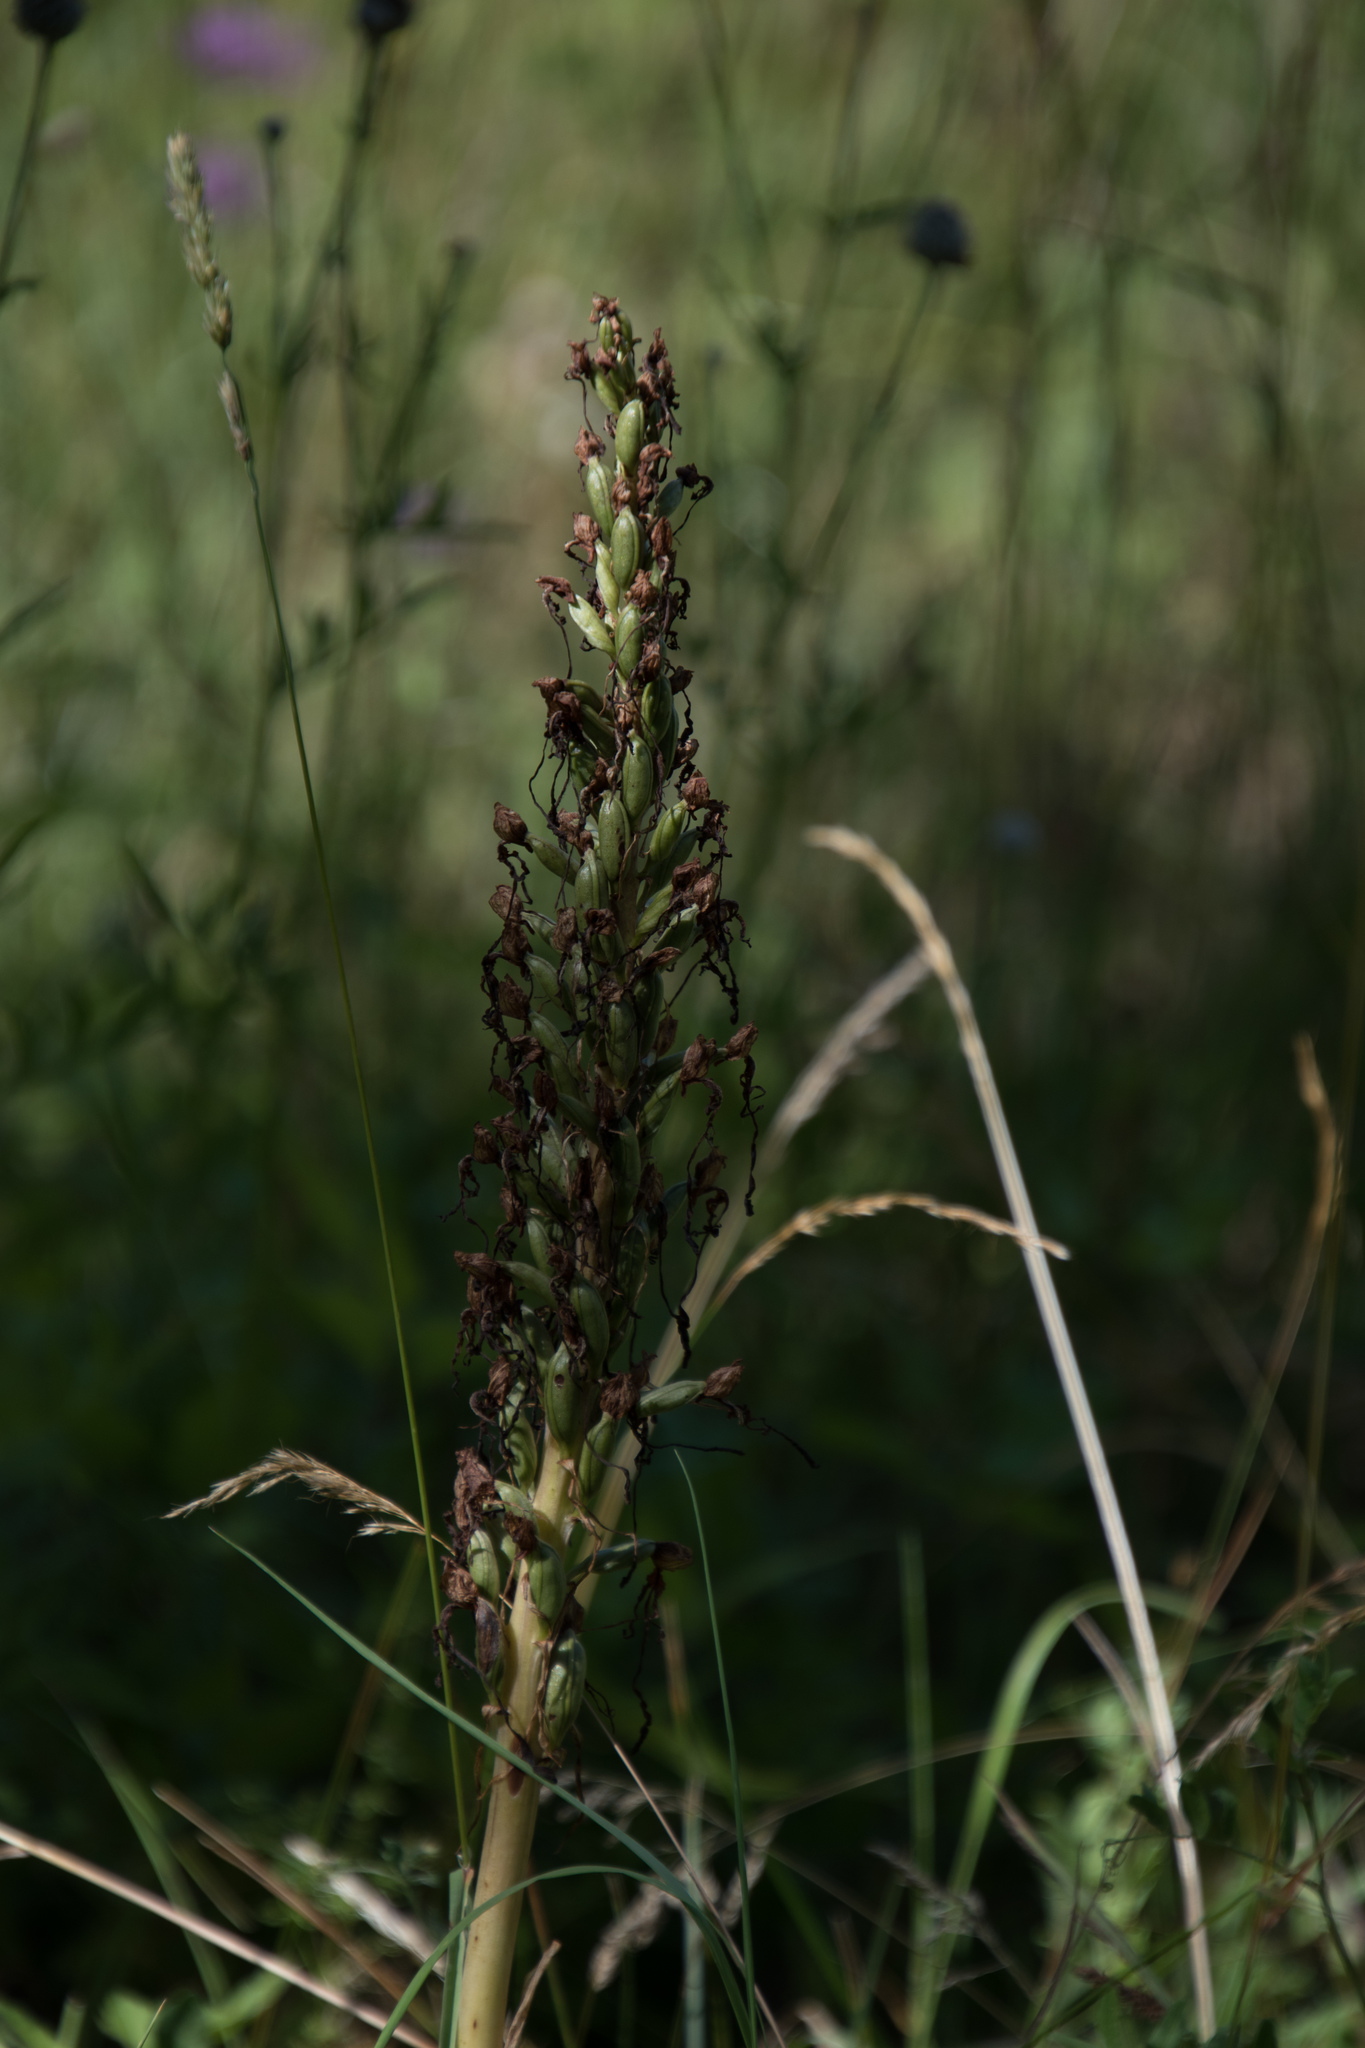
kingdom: Plantae
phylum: Tracheophyta
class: Liliopsida
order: Asparagales
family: Orchidaceae
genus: Himantoglossum
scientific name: Himantoglossum hircinum
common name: Lizard orchid
